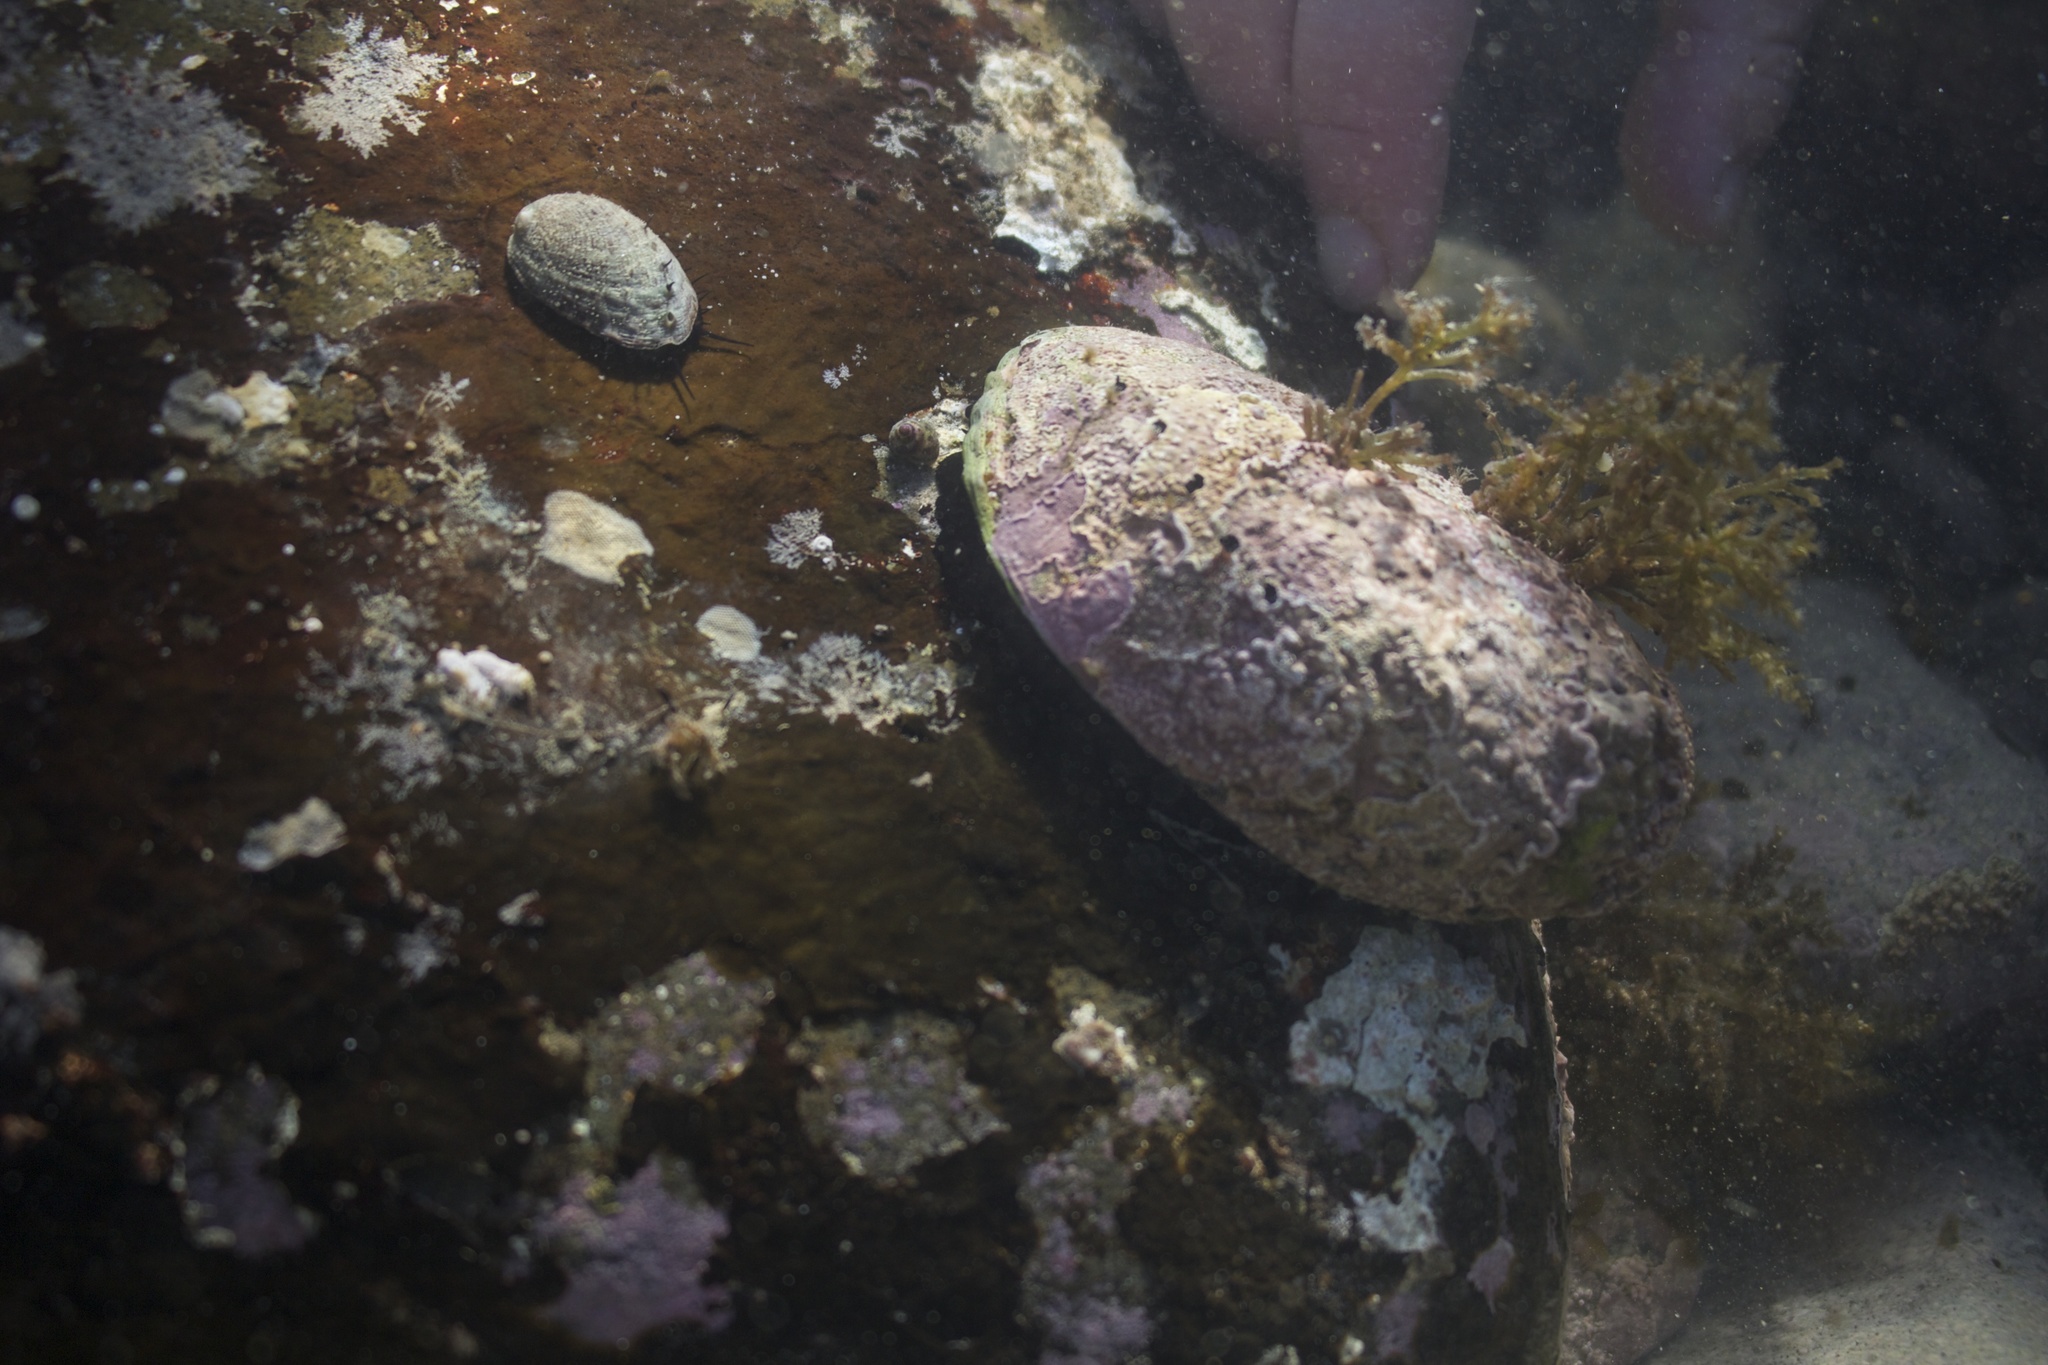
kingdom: Animalia
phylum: Mollusca
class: Gastropoda
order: Lepetellida
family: Haliotidae
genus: Haliotis
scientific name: Haliotis iris
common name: Abalone
